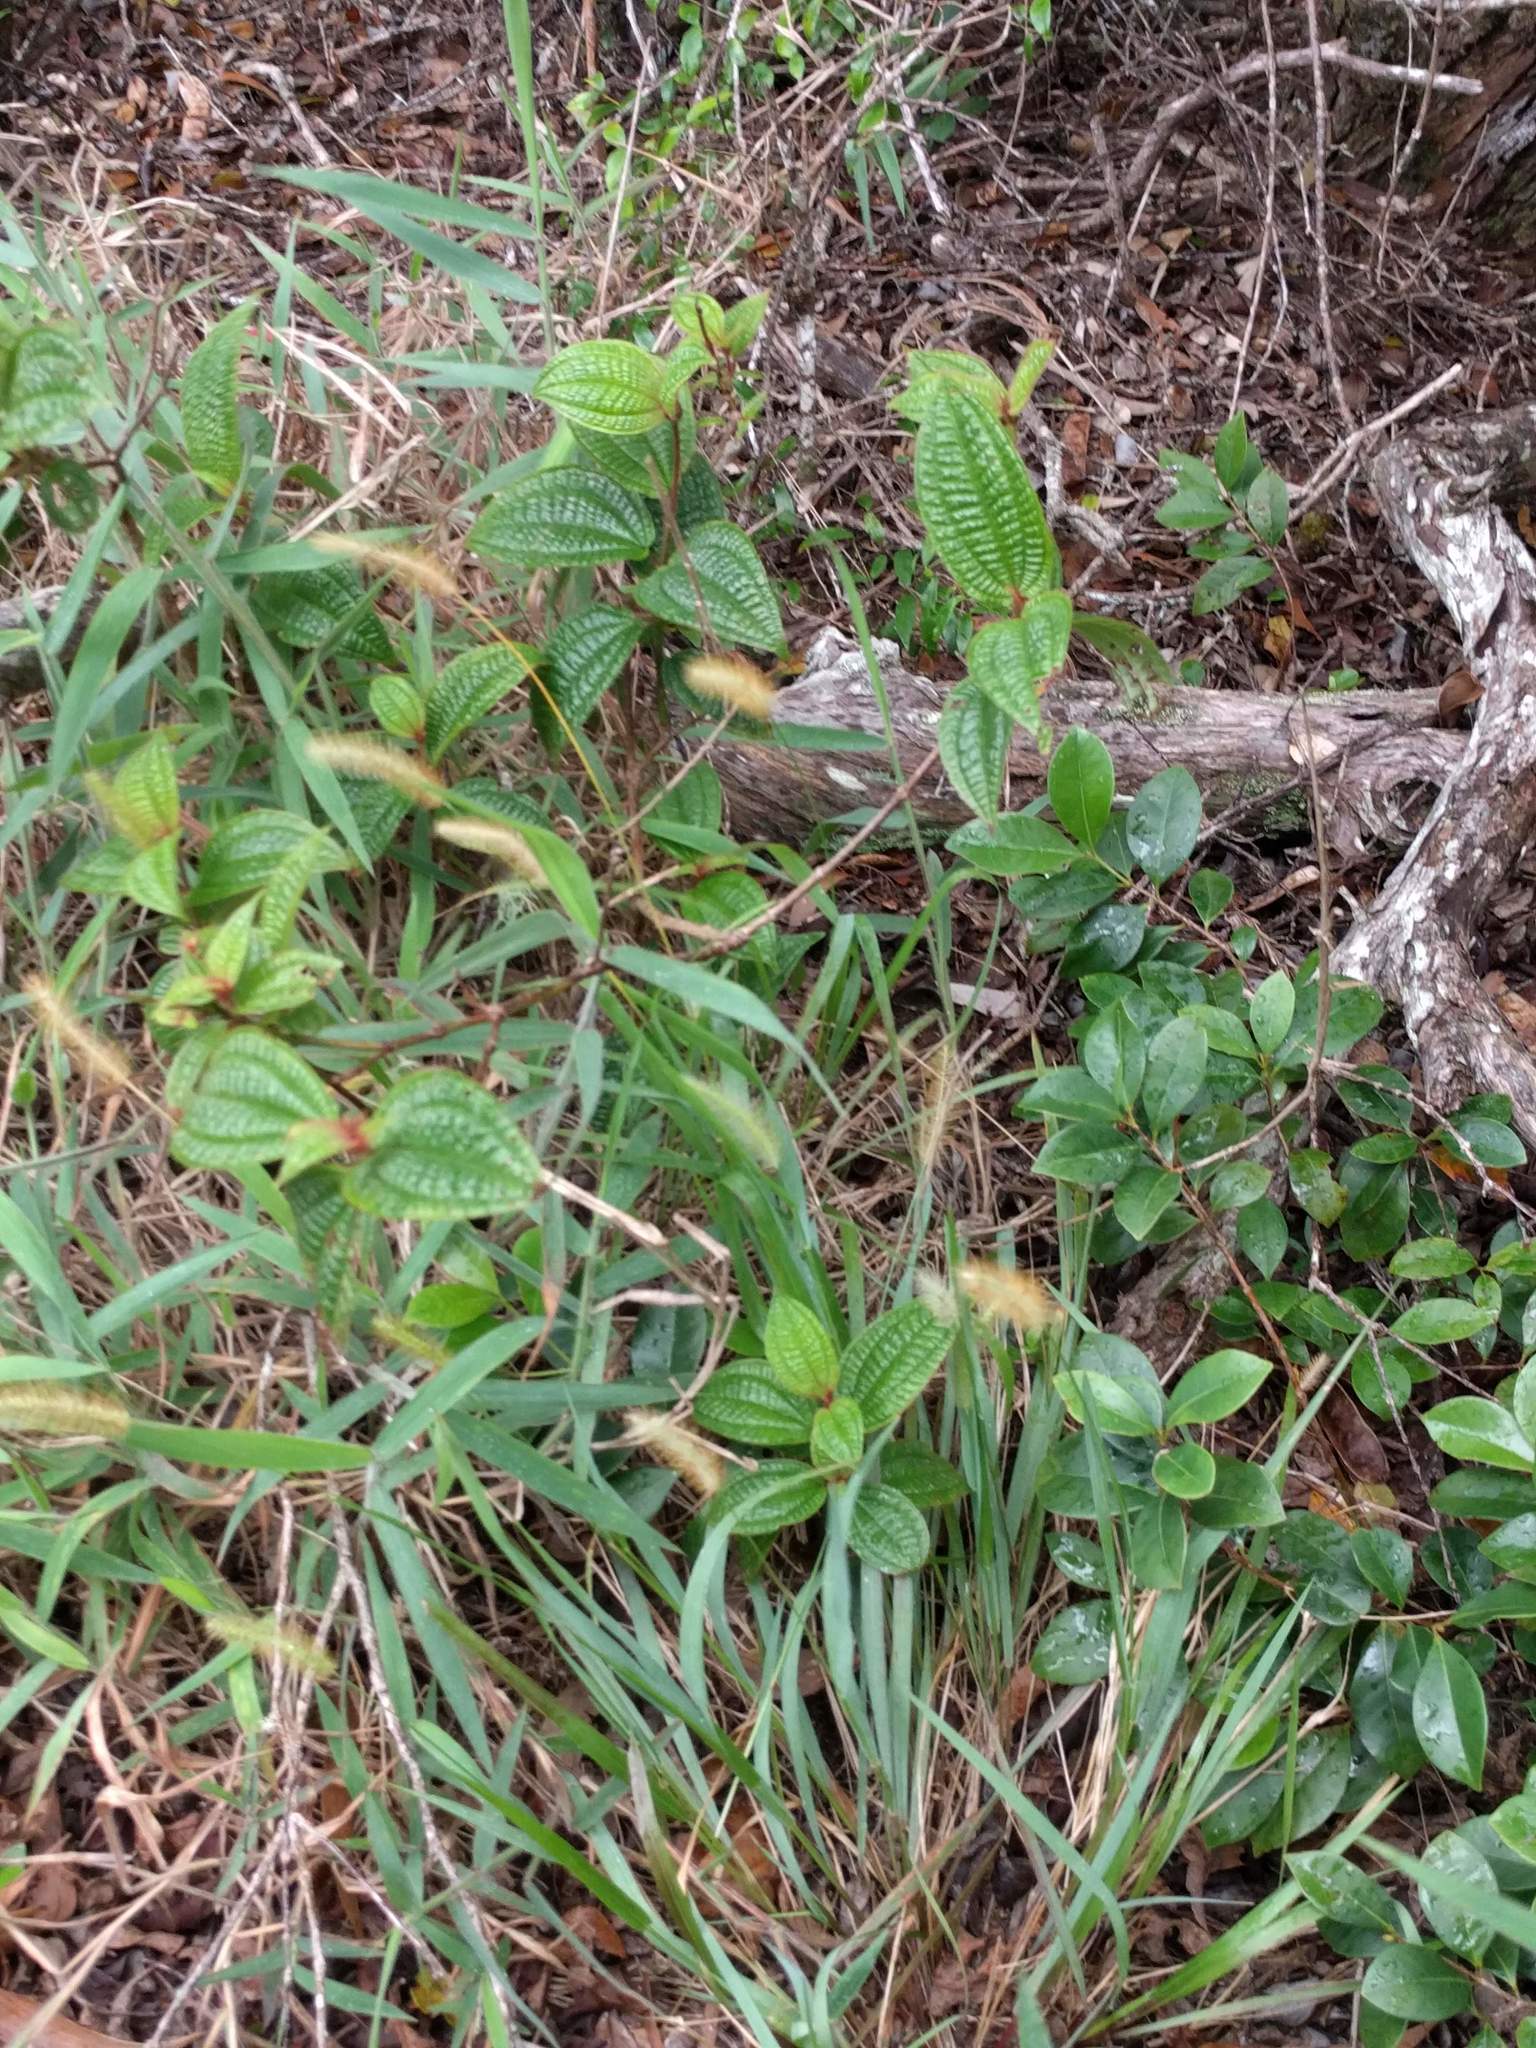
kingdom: Plantae
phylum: Tracheophyta
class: Magnoliopsida
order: Myrtales
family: Melastomataceae
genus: Miconia
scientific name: Miconia crenata
